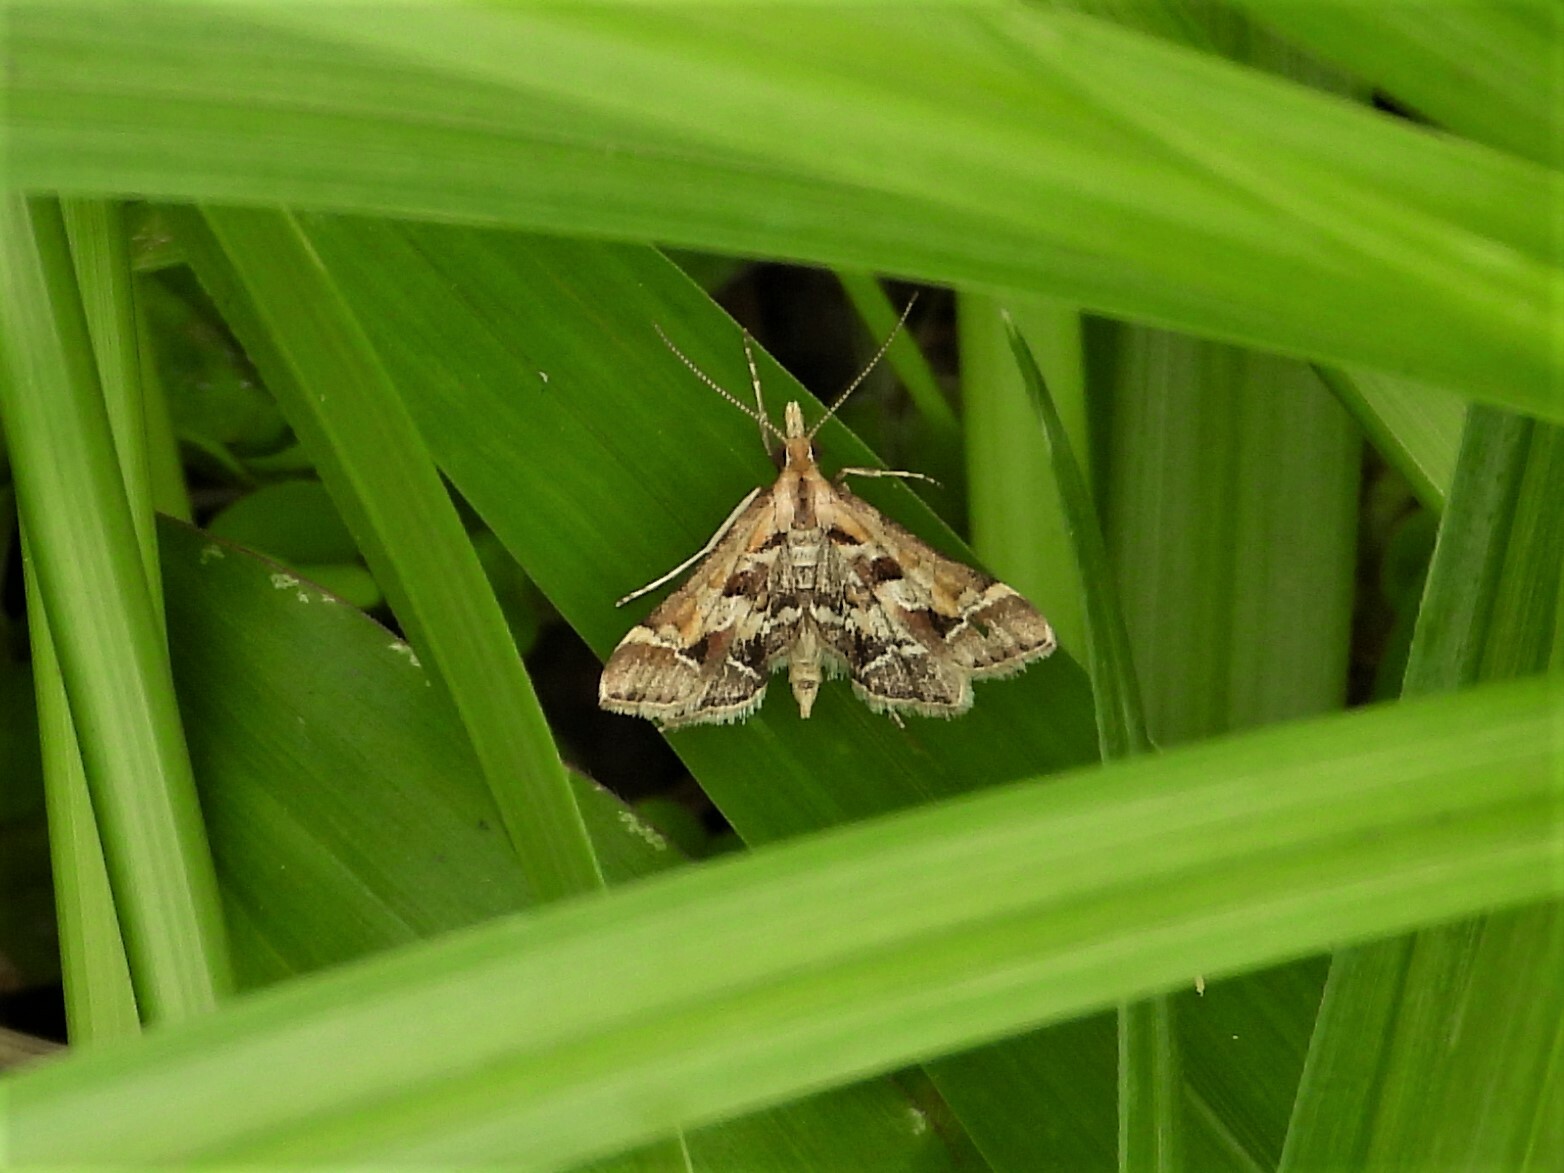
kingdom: Animalia
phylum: Arthropoda
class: Insecta
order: Lepidoptera
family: Crambidae
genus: Diasemia
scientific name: Diasemia accalis
